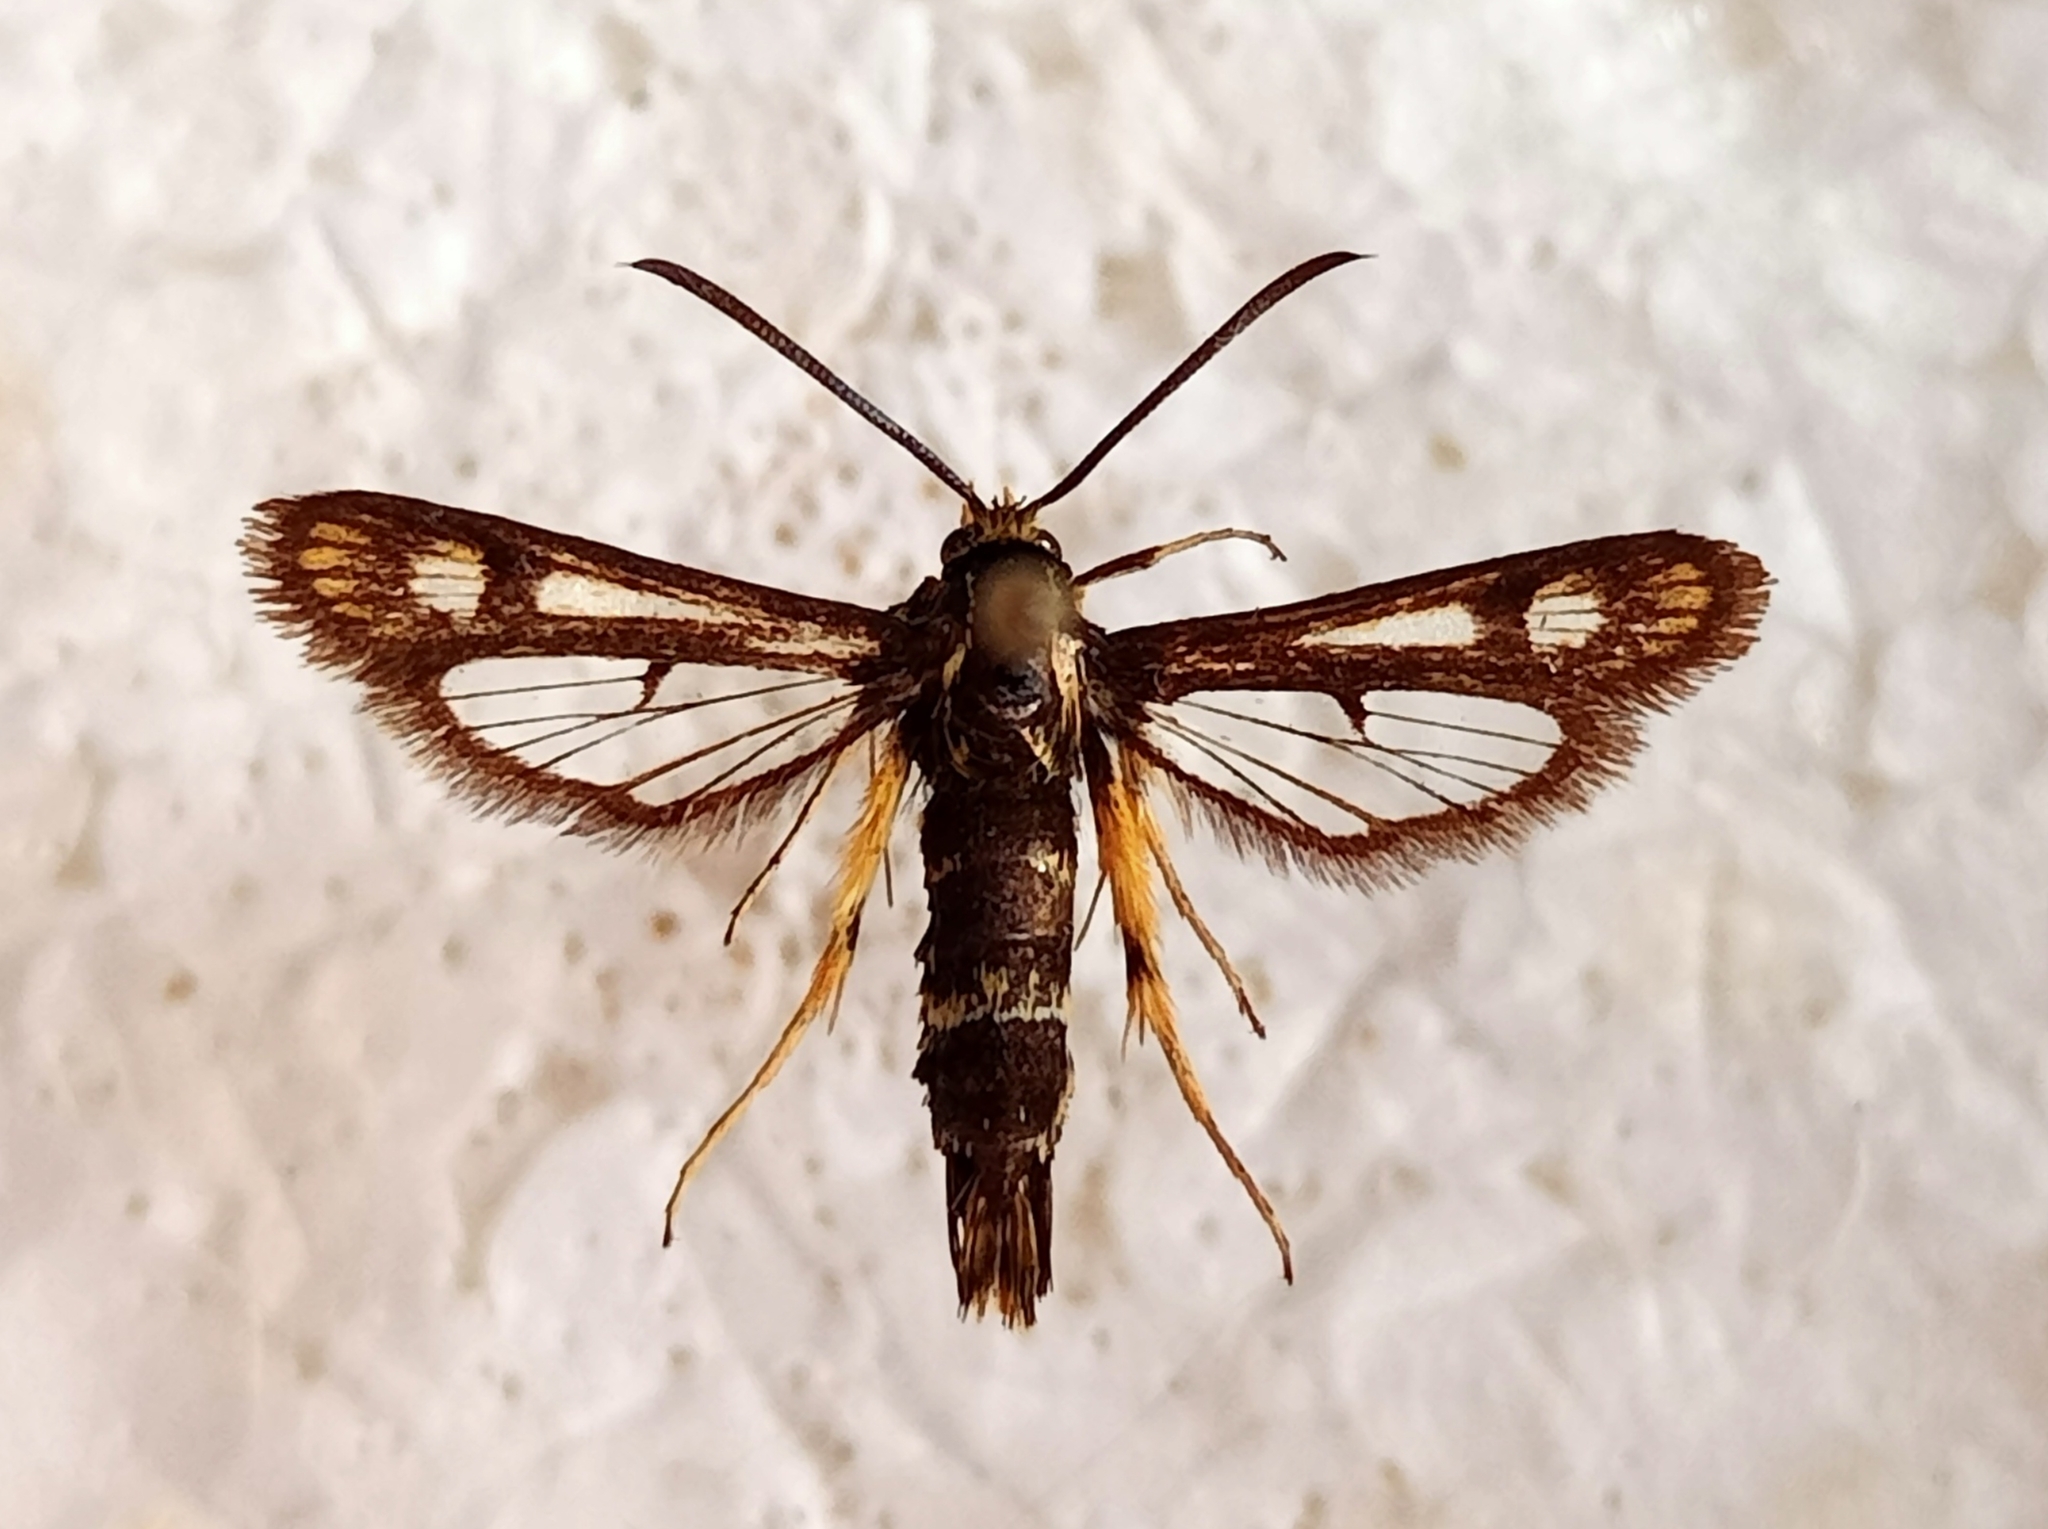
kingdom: Animalia
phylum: Arthropoda
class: Insecta
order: Lepidoptera
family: Sesiidae
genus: Chamaesphecia
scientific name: Chamaesphecia astatiformis
